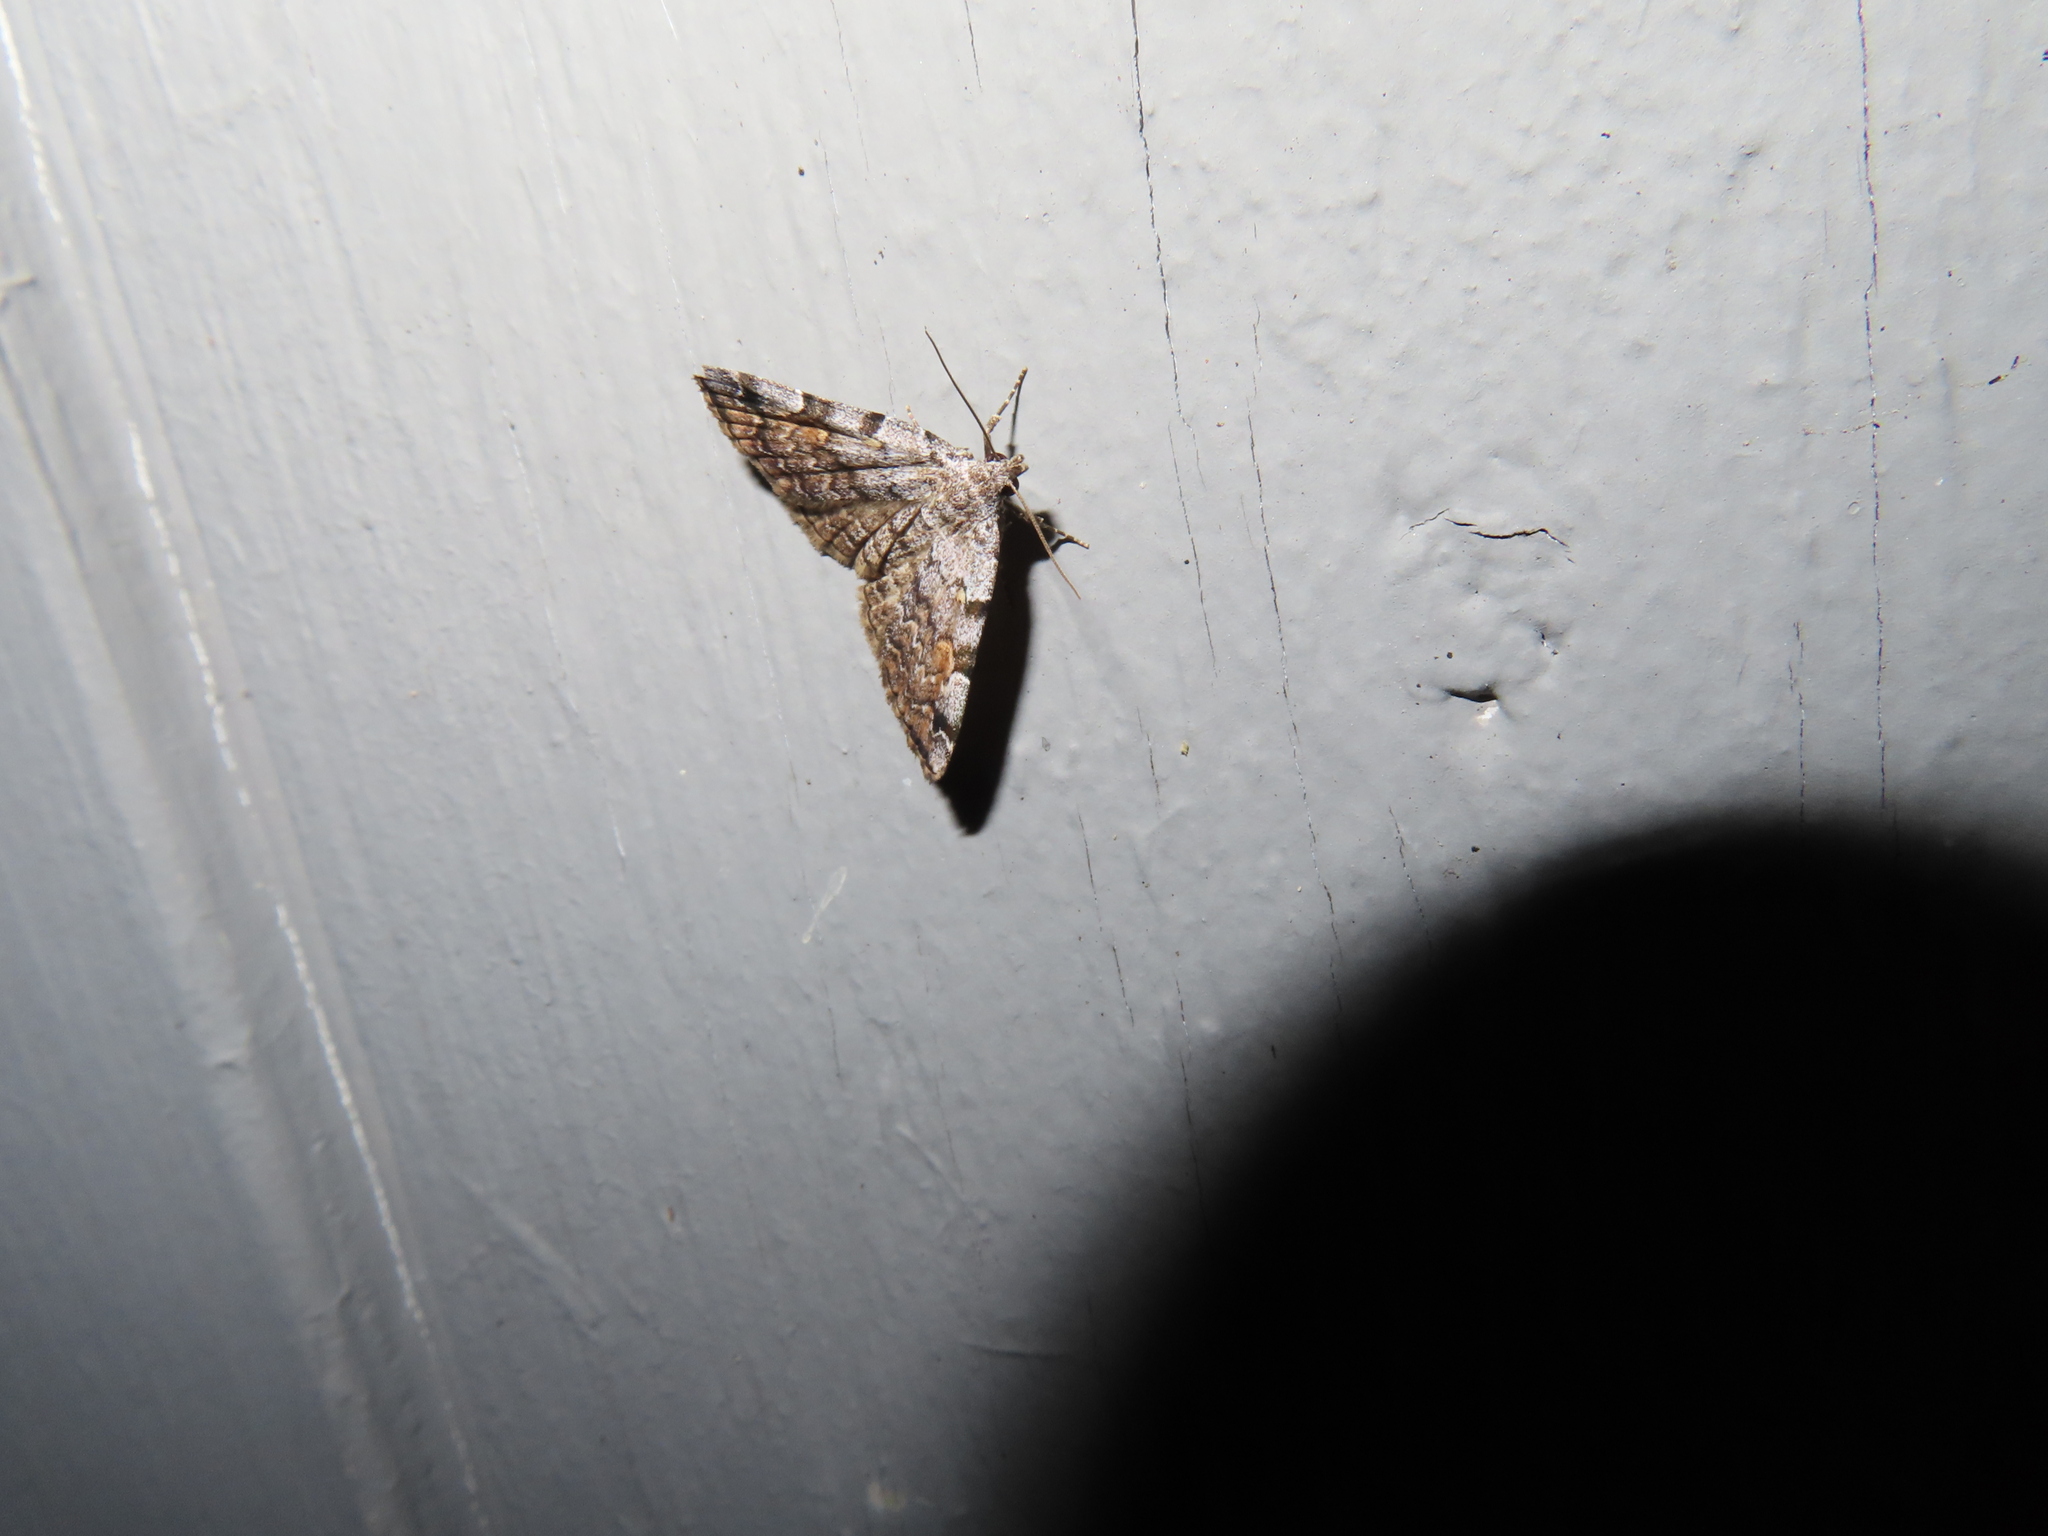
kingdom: Animalia
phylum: Arthropoda
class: Insecta
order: Lepidoptera
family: Erebidae
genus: Idia
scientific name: Idia americalis
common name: American idia moth
